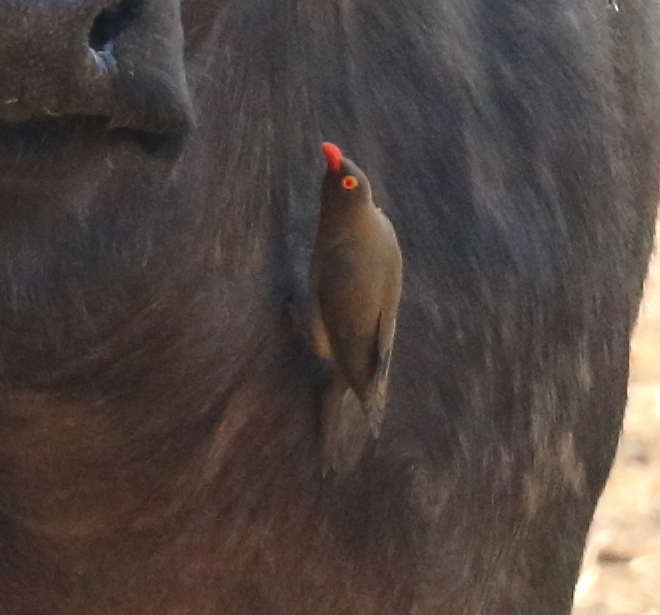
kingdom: Animalia
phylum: Chordata
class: Aves
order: Passeriformes
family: Buphagidae
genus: Buphagus
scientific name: Buphagus erythrorhynchus
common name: Red-billed oxpecker
